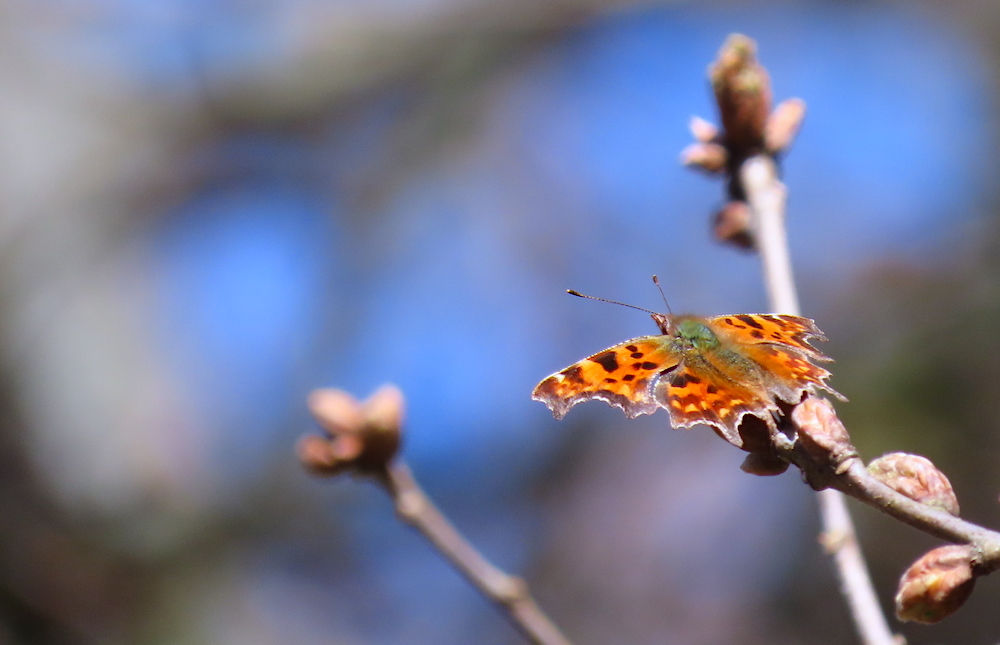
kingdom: Animalia
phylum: Arthropoda
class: Insecta
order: Lepidoptera
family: Nymphalidae
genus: Polygonia
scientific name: Polygonia c-album
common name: Comma
